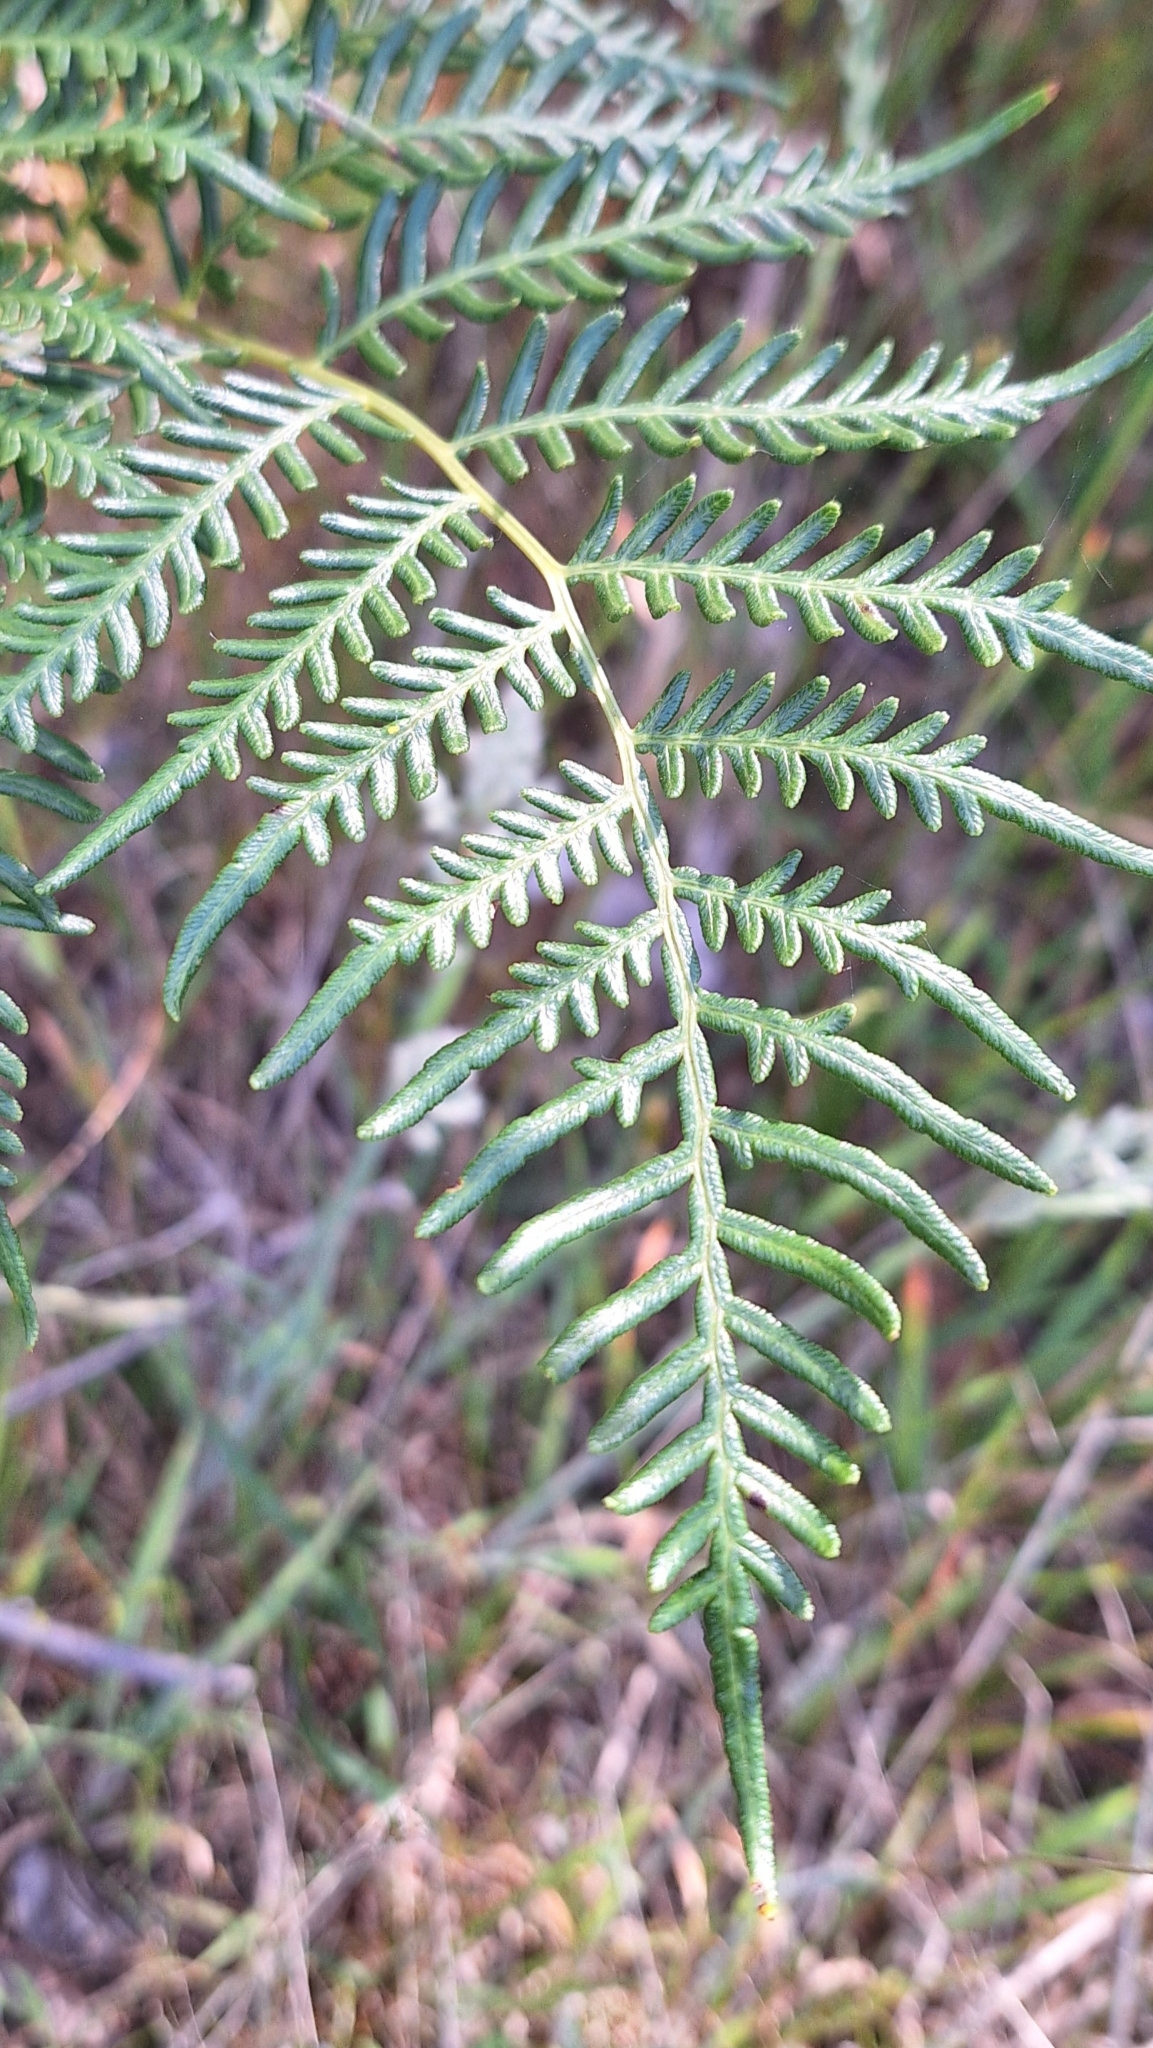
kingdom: Plantae
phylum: Tracheophyta
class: Polypodiopsida
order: Polypodiales
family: Dennstaedtiaceae
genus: Pteridium
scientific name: Pteridium esculentum
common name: Bracken fern
